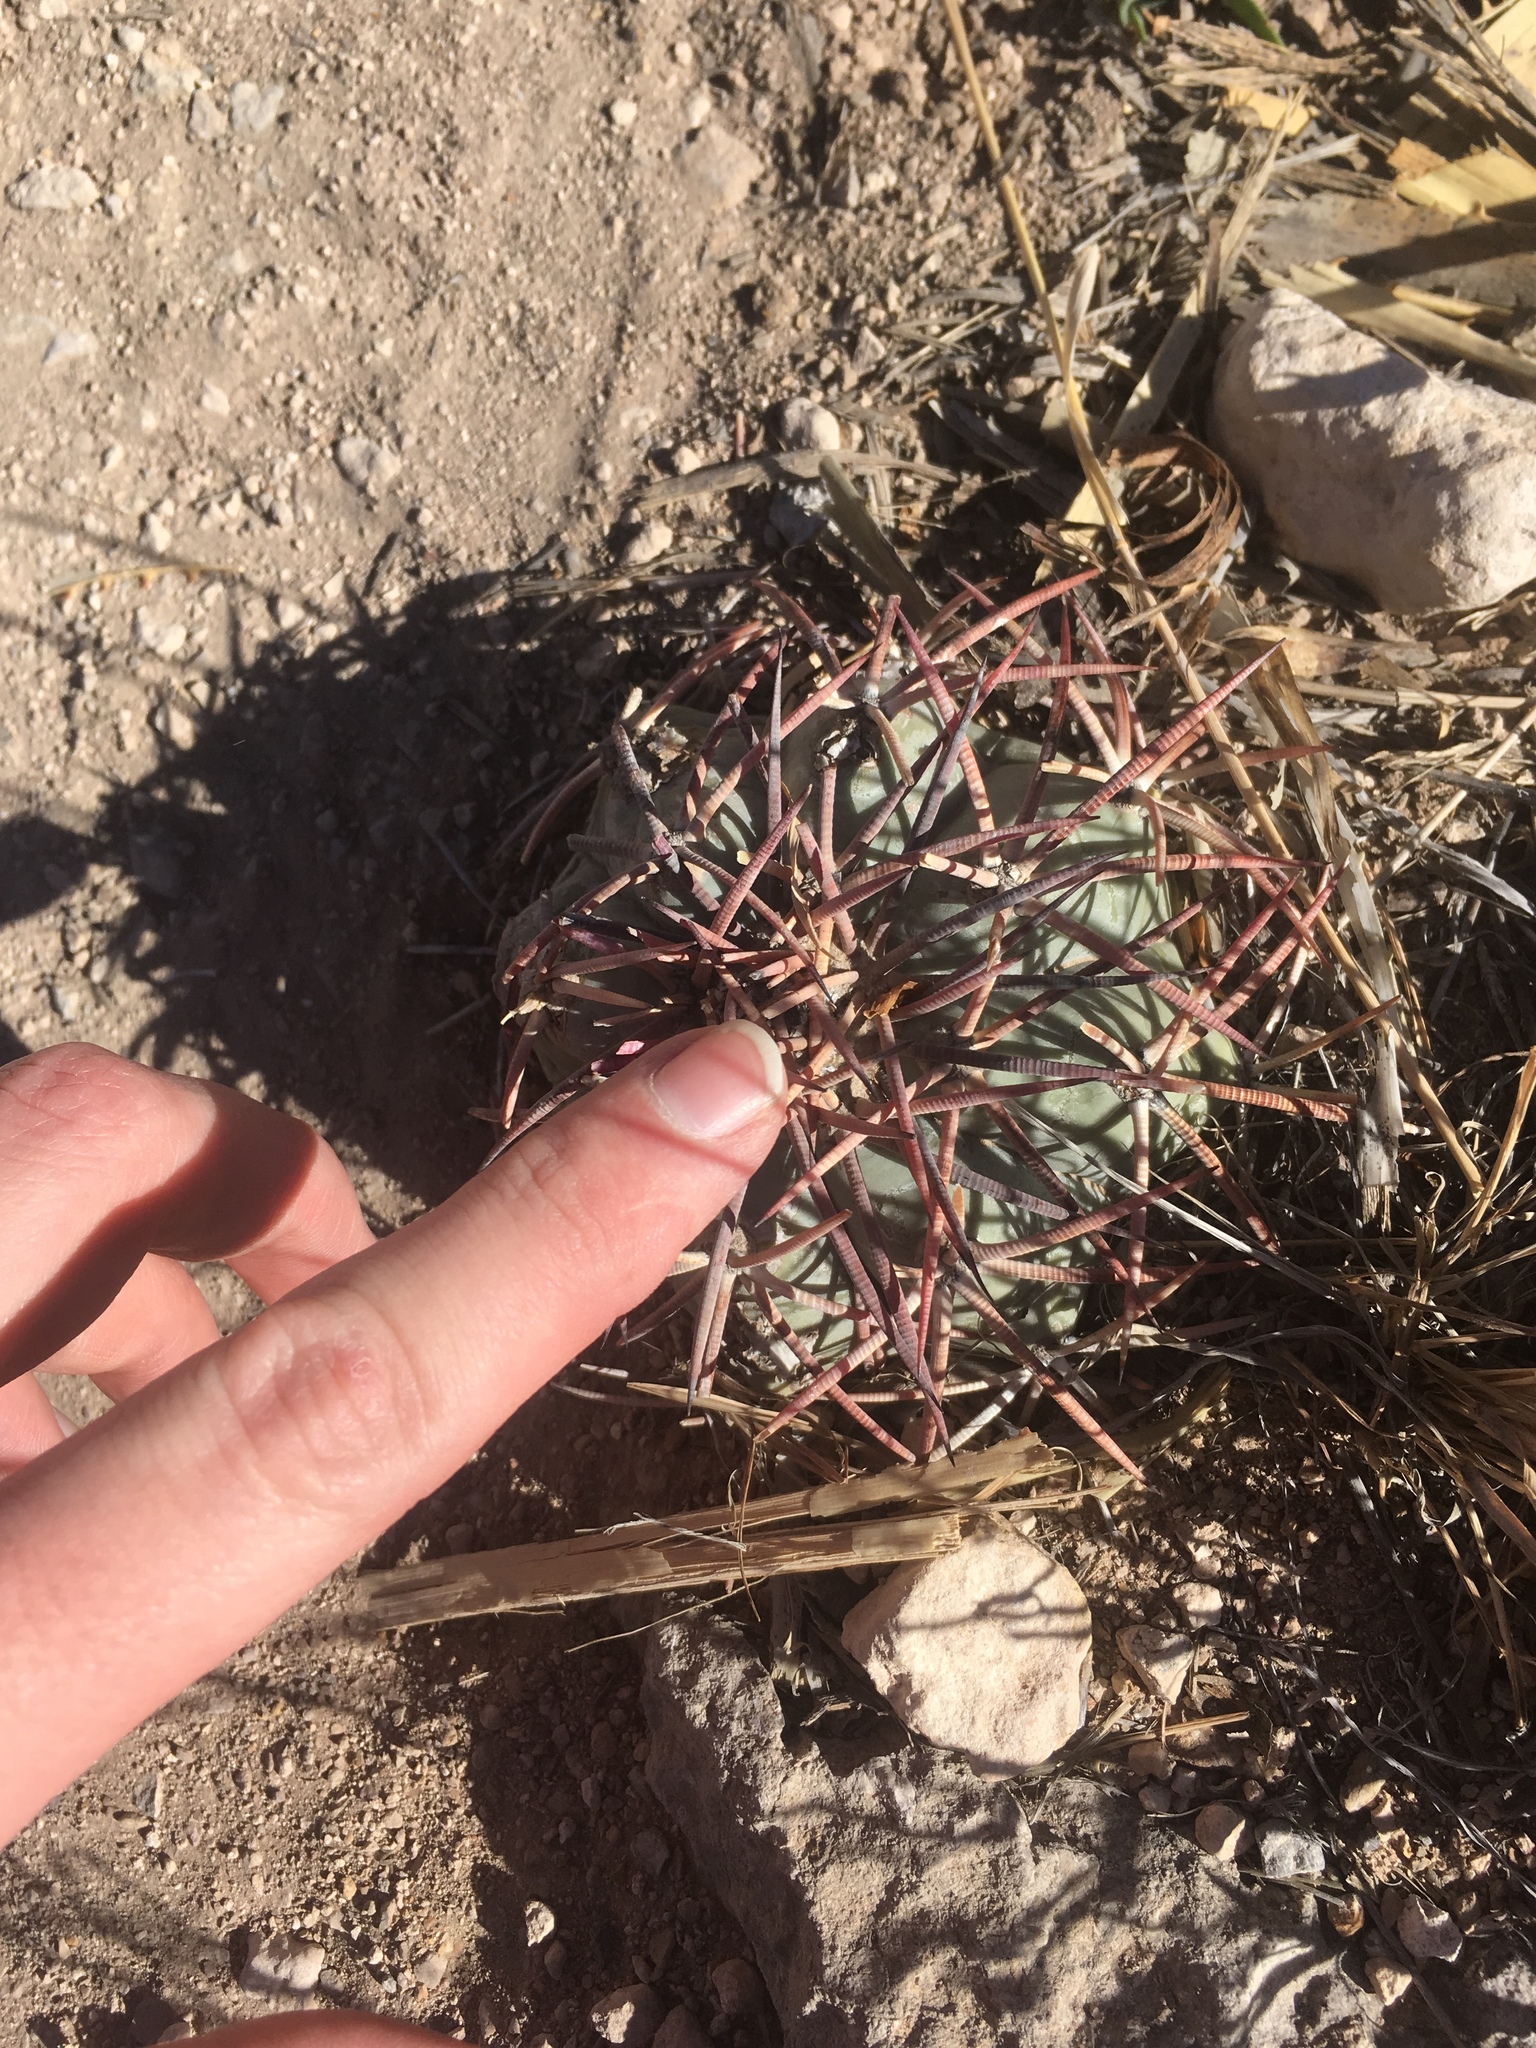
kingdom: Plantae
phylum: Tracheophyta
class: Magnoliopsida
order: Caryophyllales
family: Cactaceae
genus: Echinocactus
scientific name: Echinocactus horizonthalonius
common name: Devilshead
